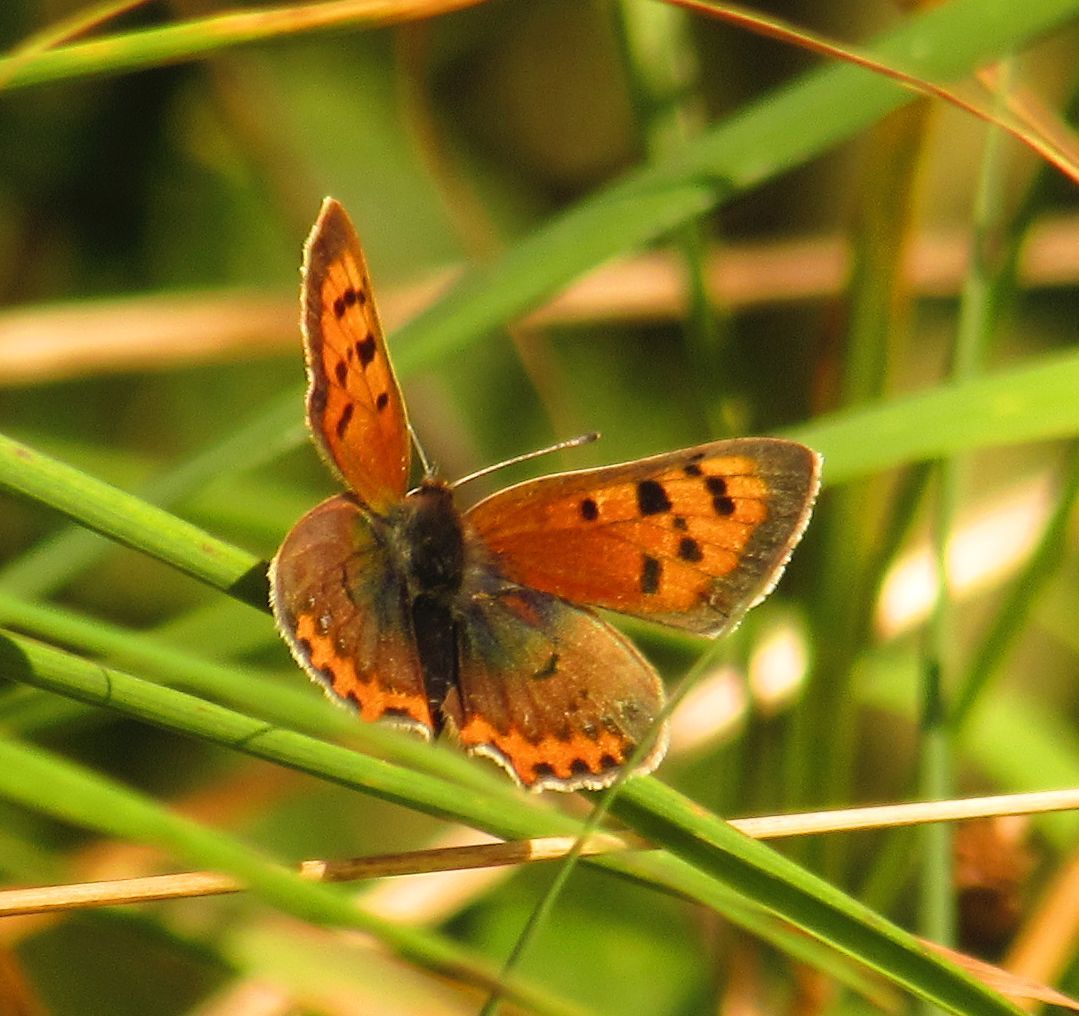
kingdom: Animalia
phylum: Arthropoda
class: Insecta
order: Lepidoptera
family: Lycaenidae
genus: Lycaena
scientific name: Lycaena phlaeas
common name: Small copper
